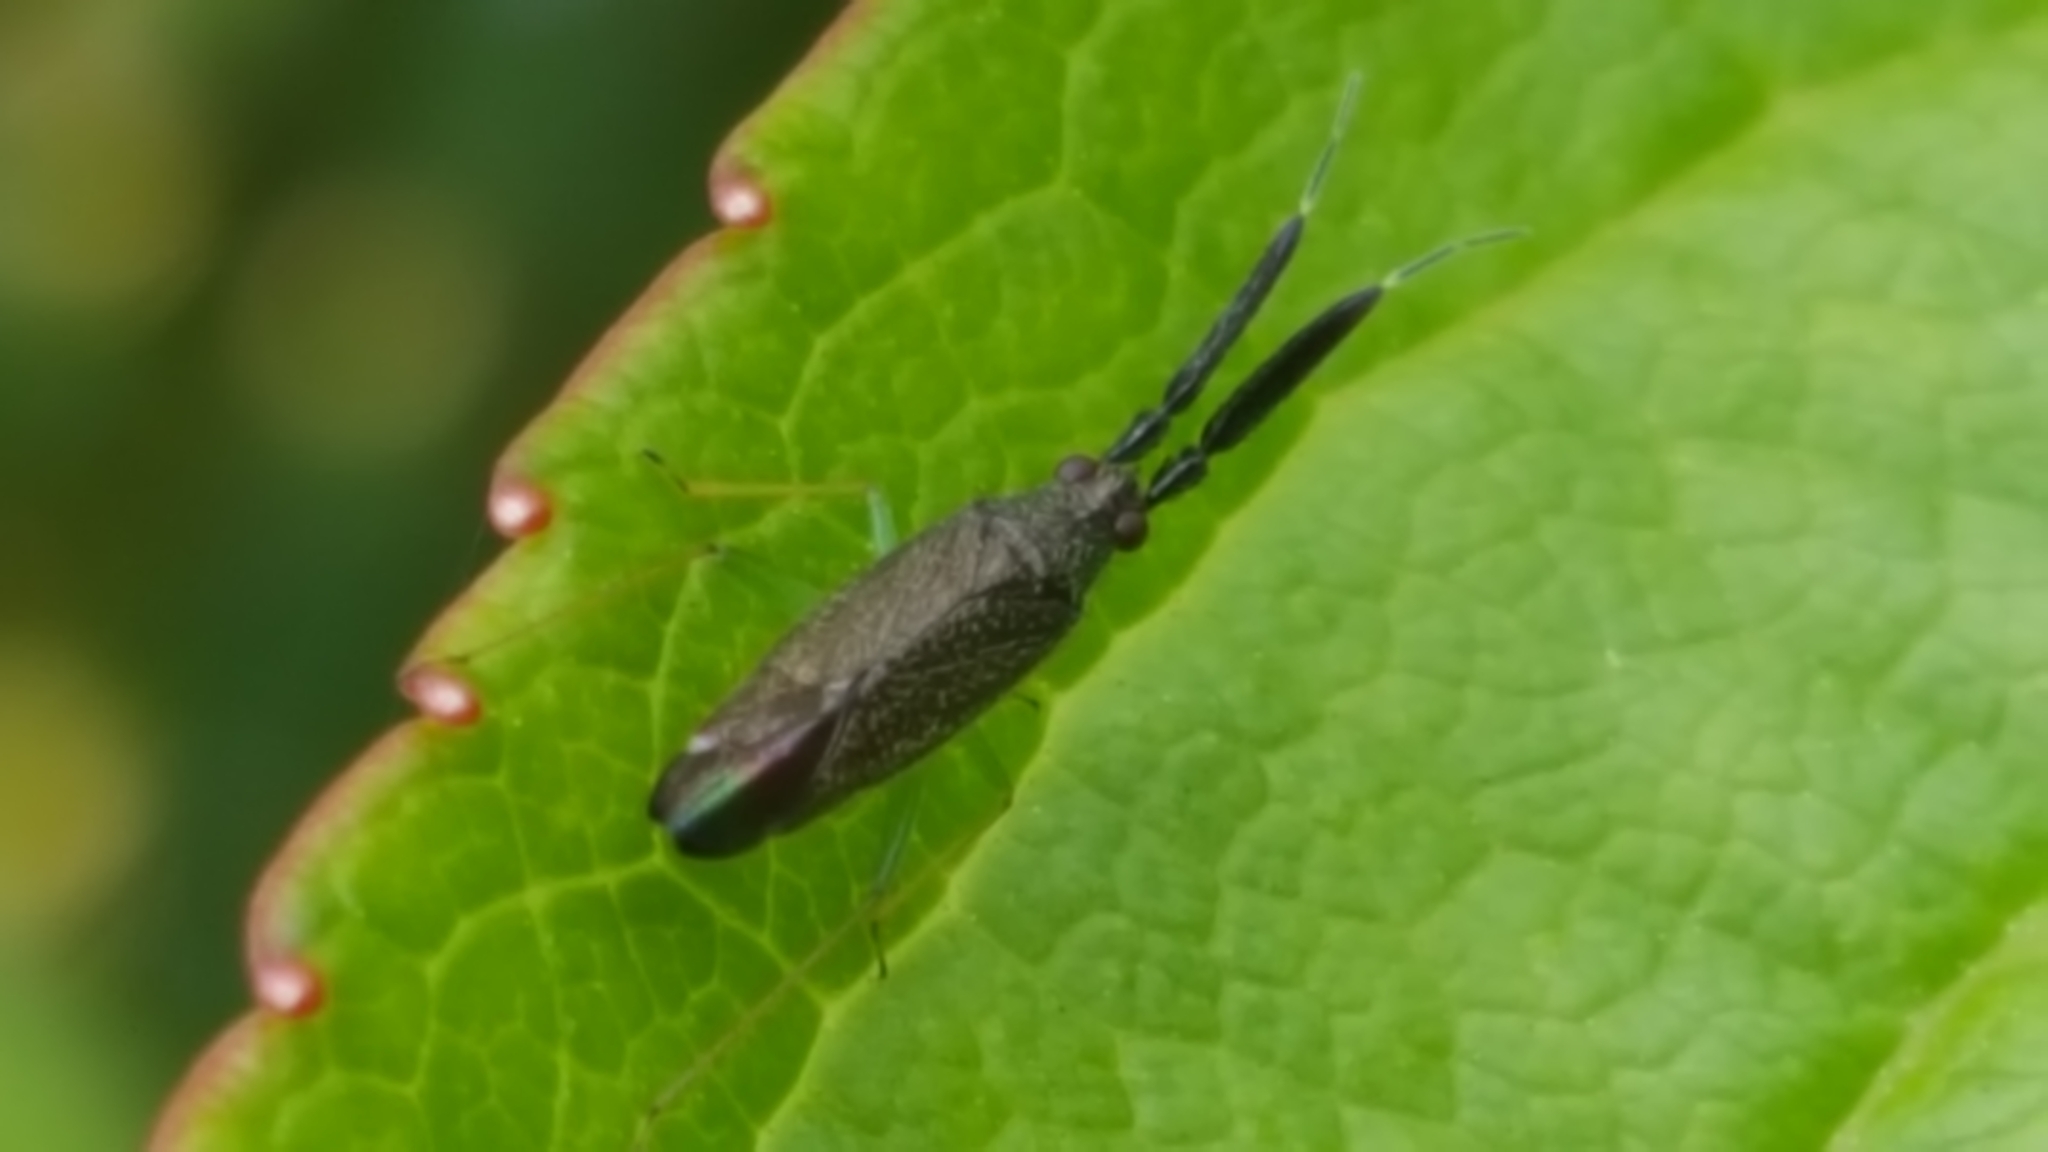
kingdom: Animalia
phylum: Arthropoda
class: Insecta
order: Hemiptera
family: Miridae
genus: Heterotoma
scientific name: Heterotoma planicornis
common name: Plant bug
